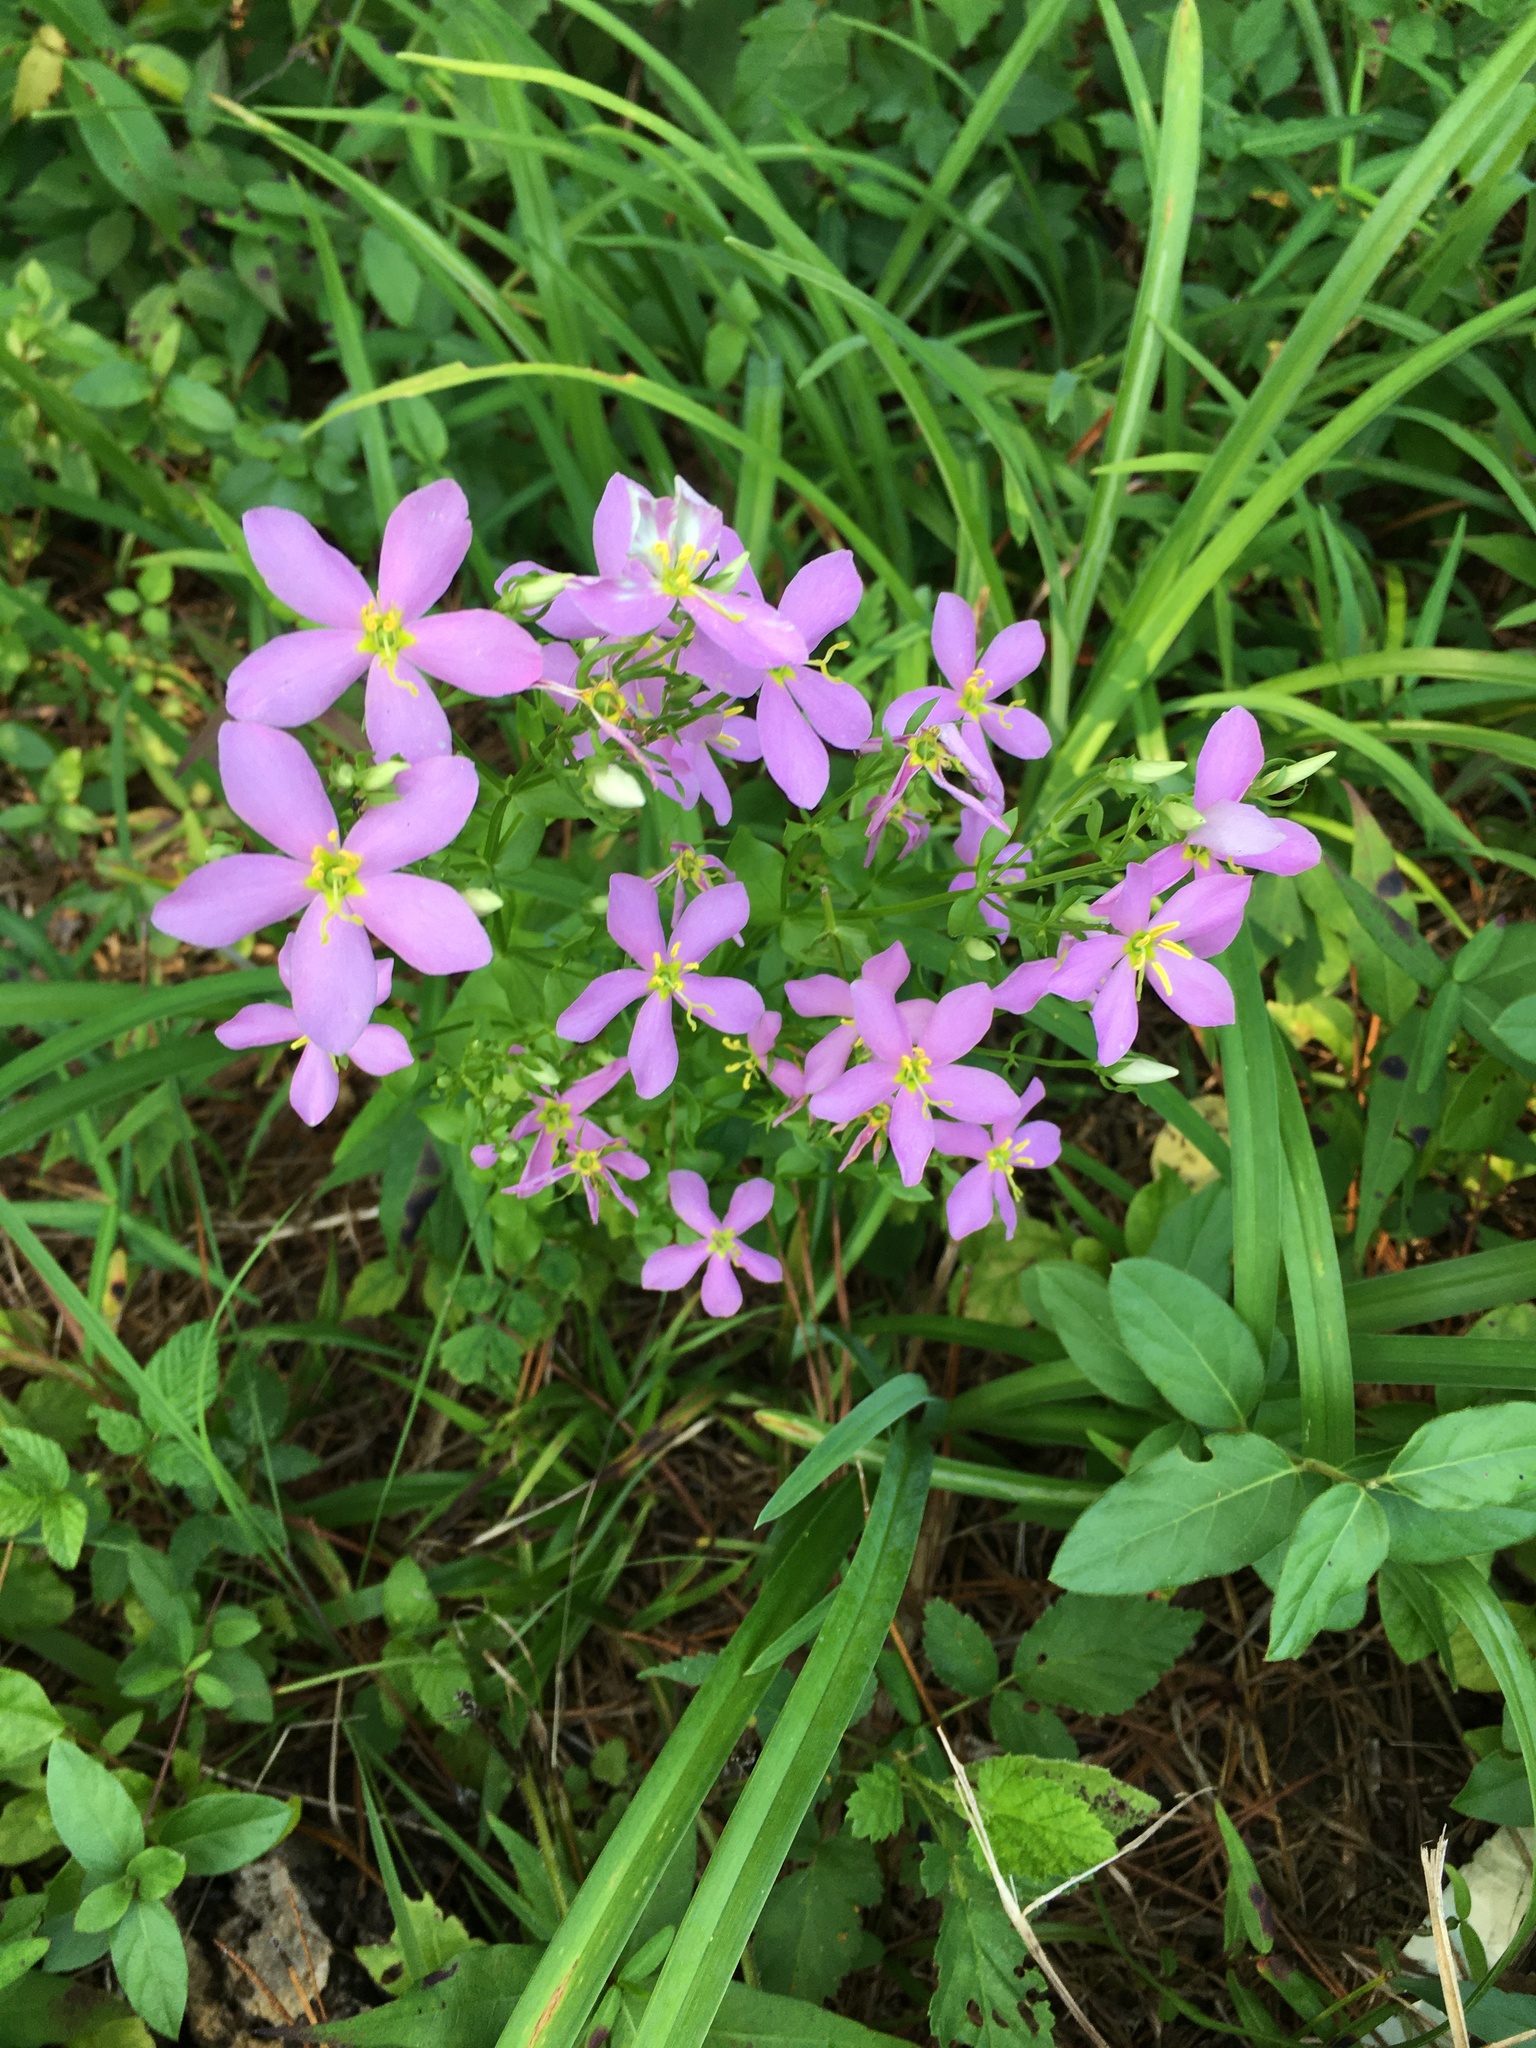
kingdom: Plantae
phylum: Tracheophyta
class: Magnoliopsida
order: Gentianales
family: Gentianaceae
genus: Sabatia
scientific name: Sabatia angularis
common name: Rose-pink
